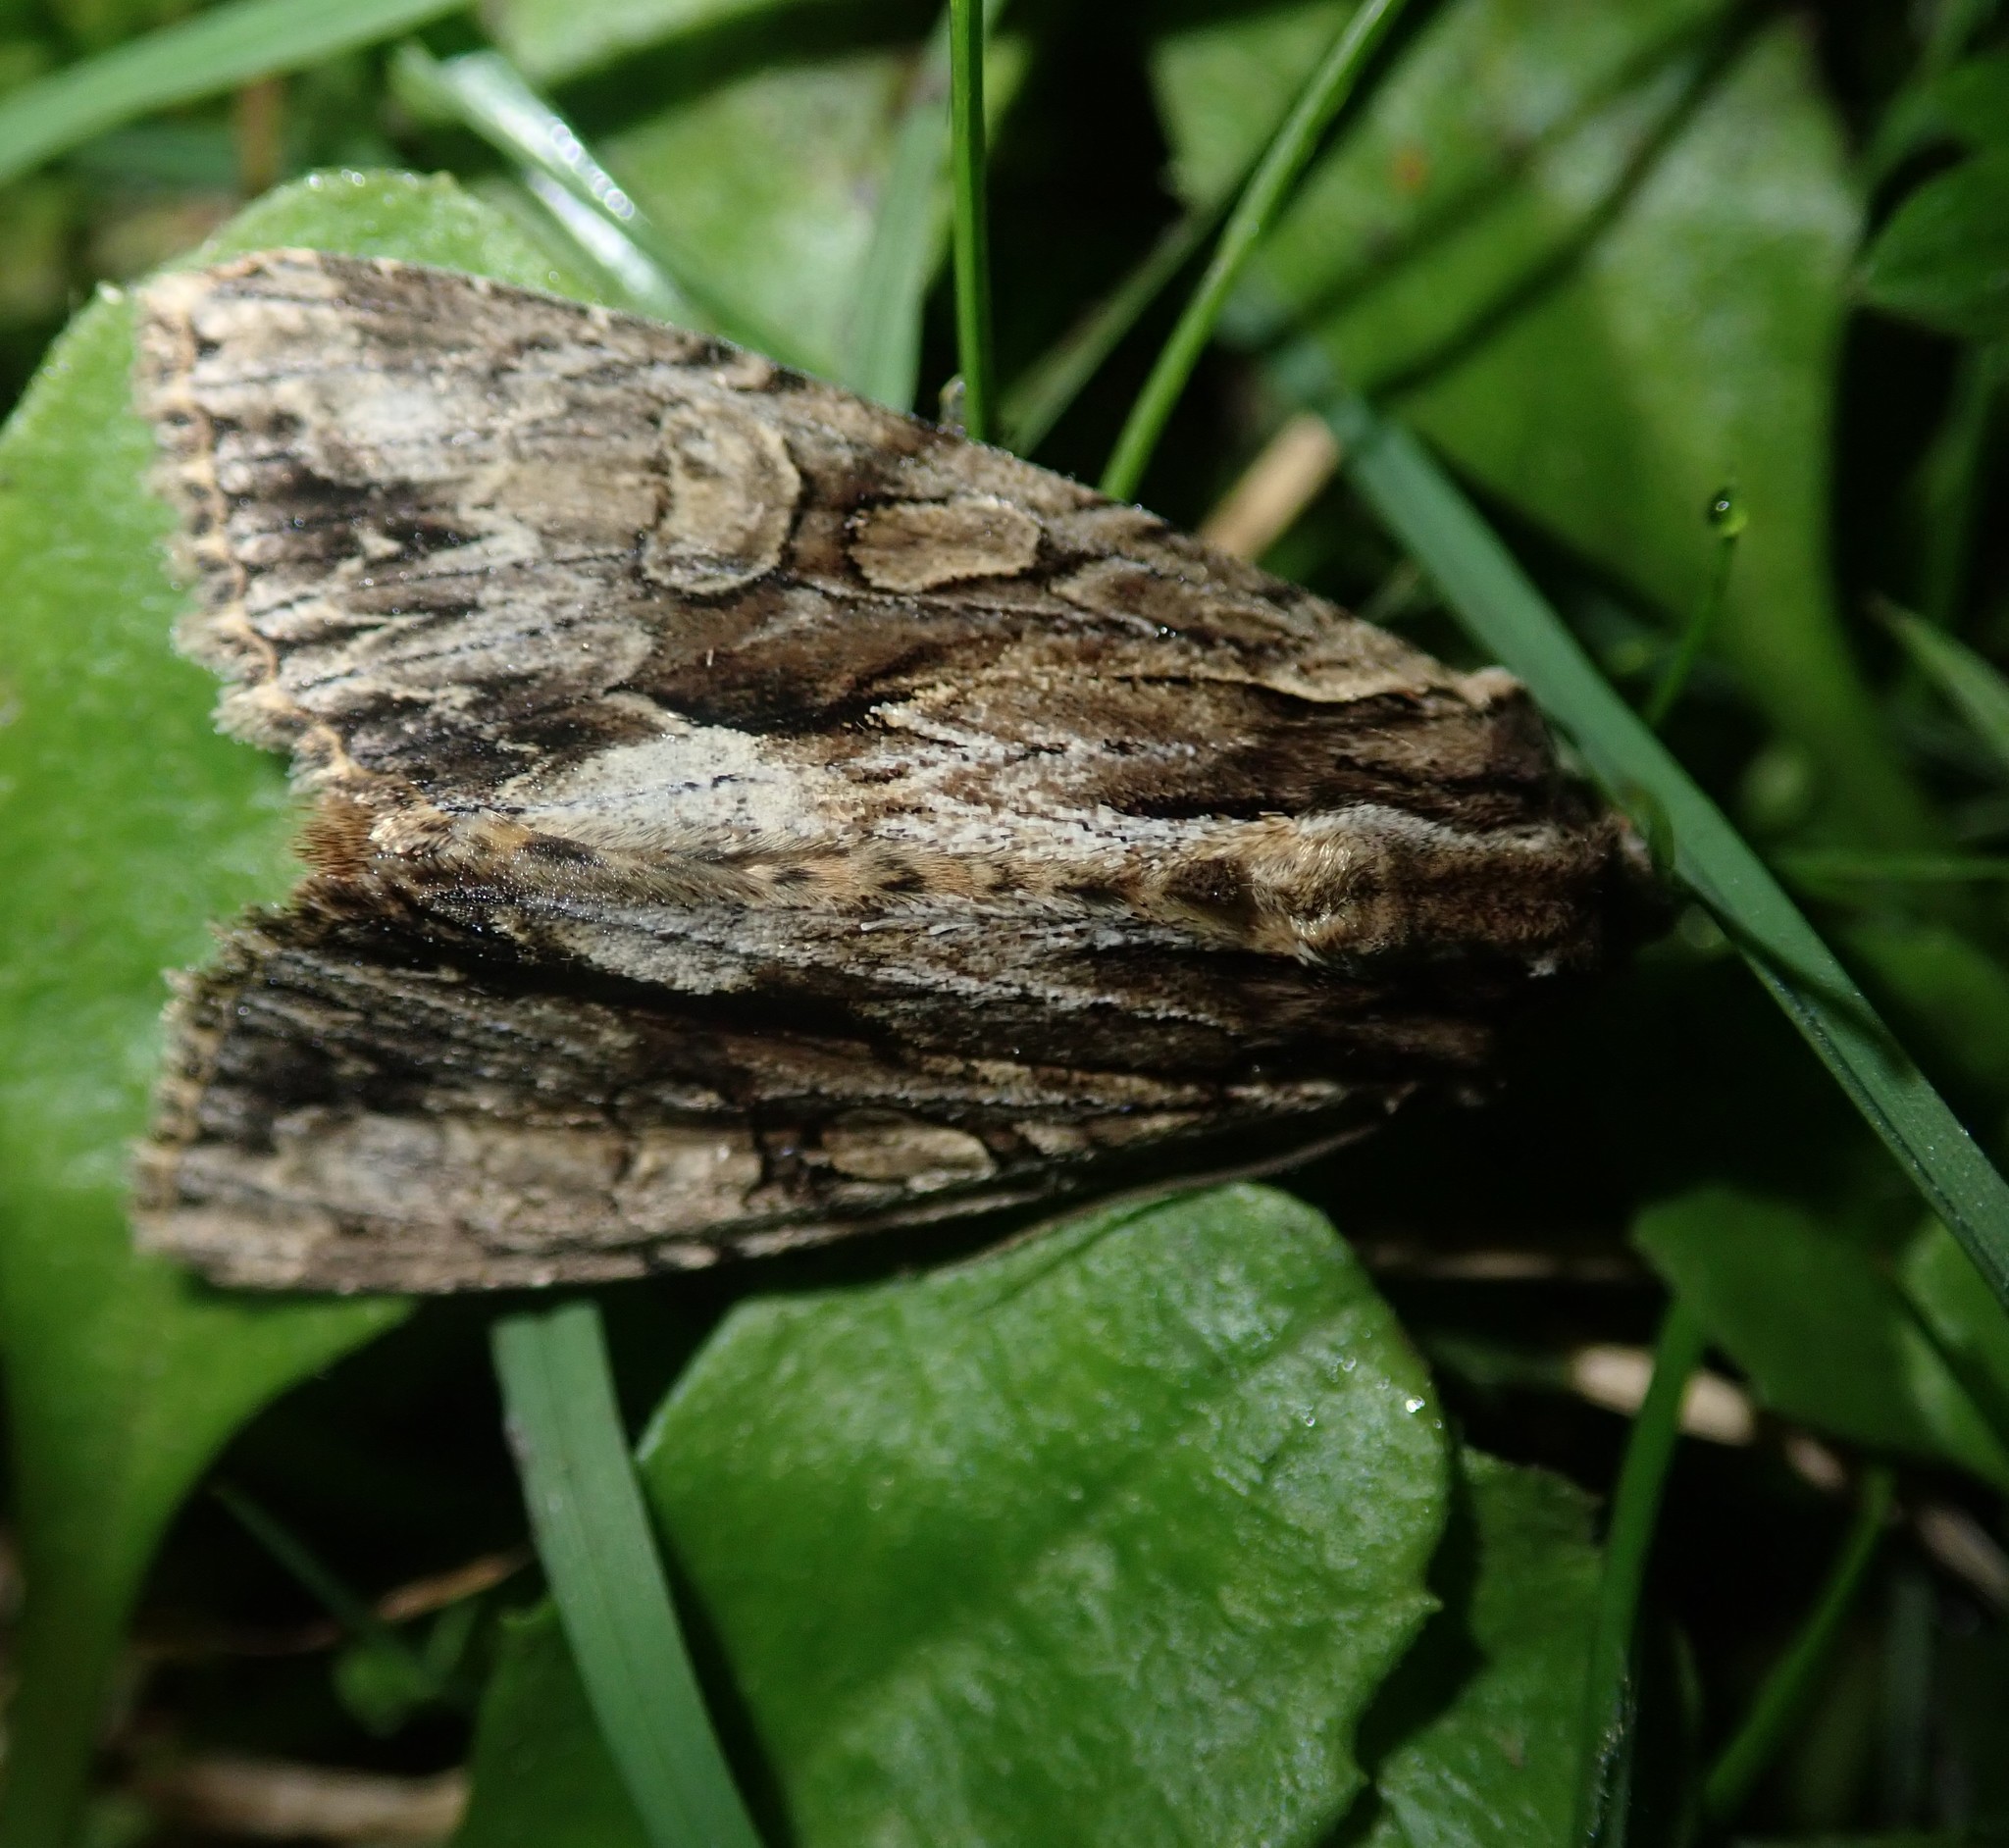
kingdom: Animalia
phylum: Arthropoda
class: Insecta
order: Lepidoptera
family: Noctuidae
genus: Apamea
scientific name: Apamea monoglypha
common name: Dark arches
